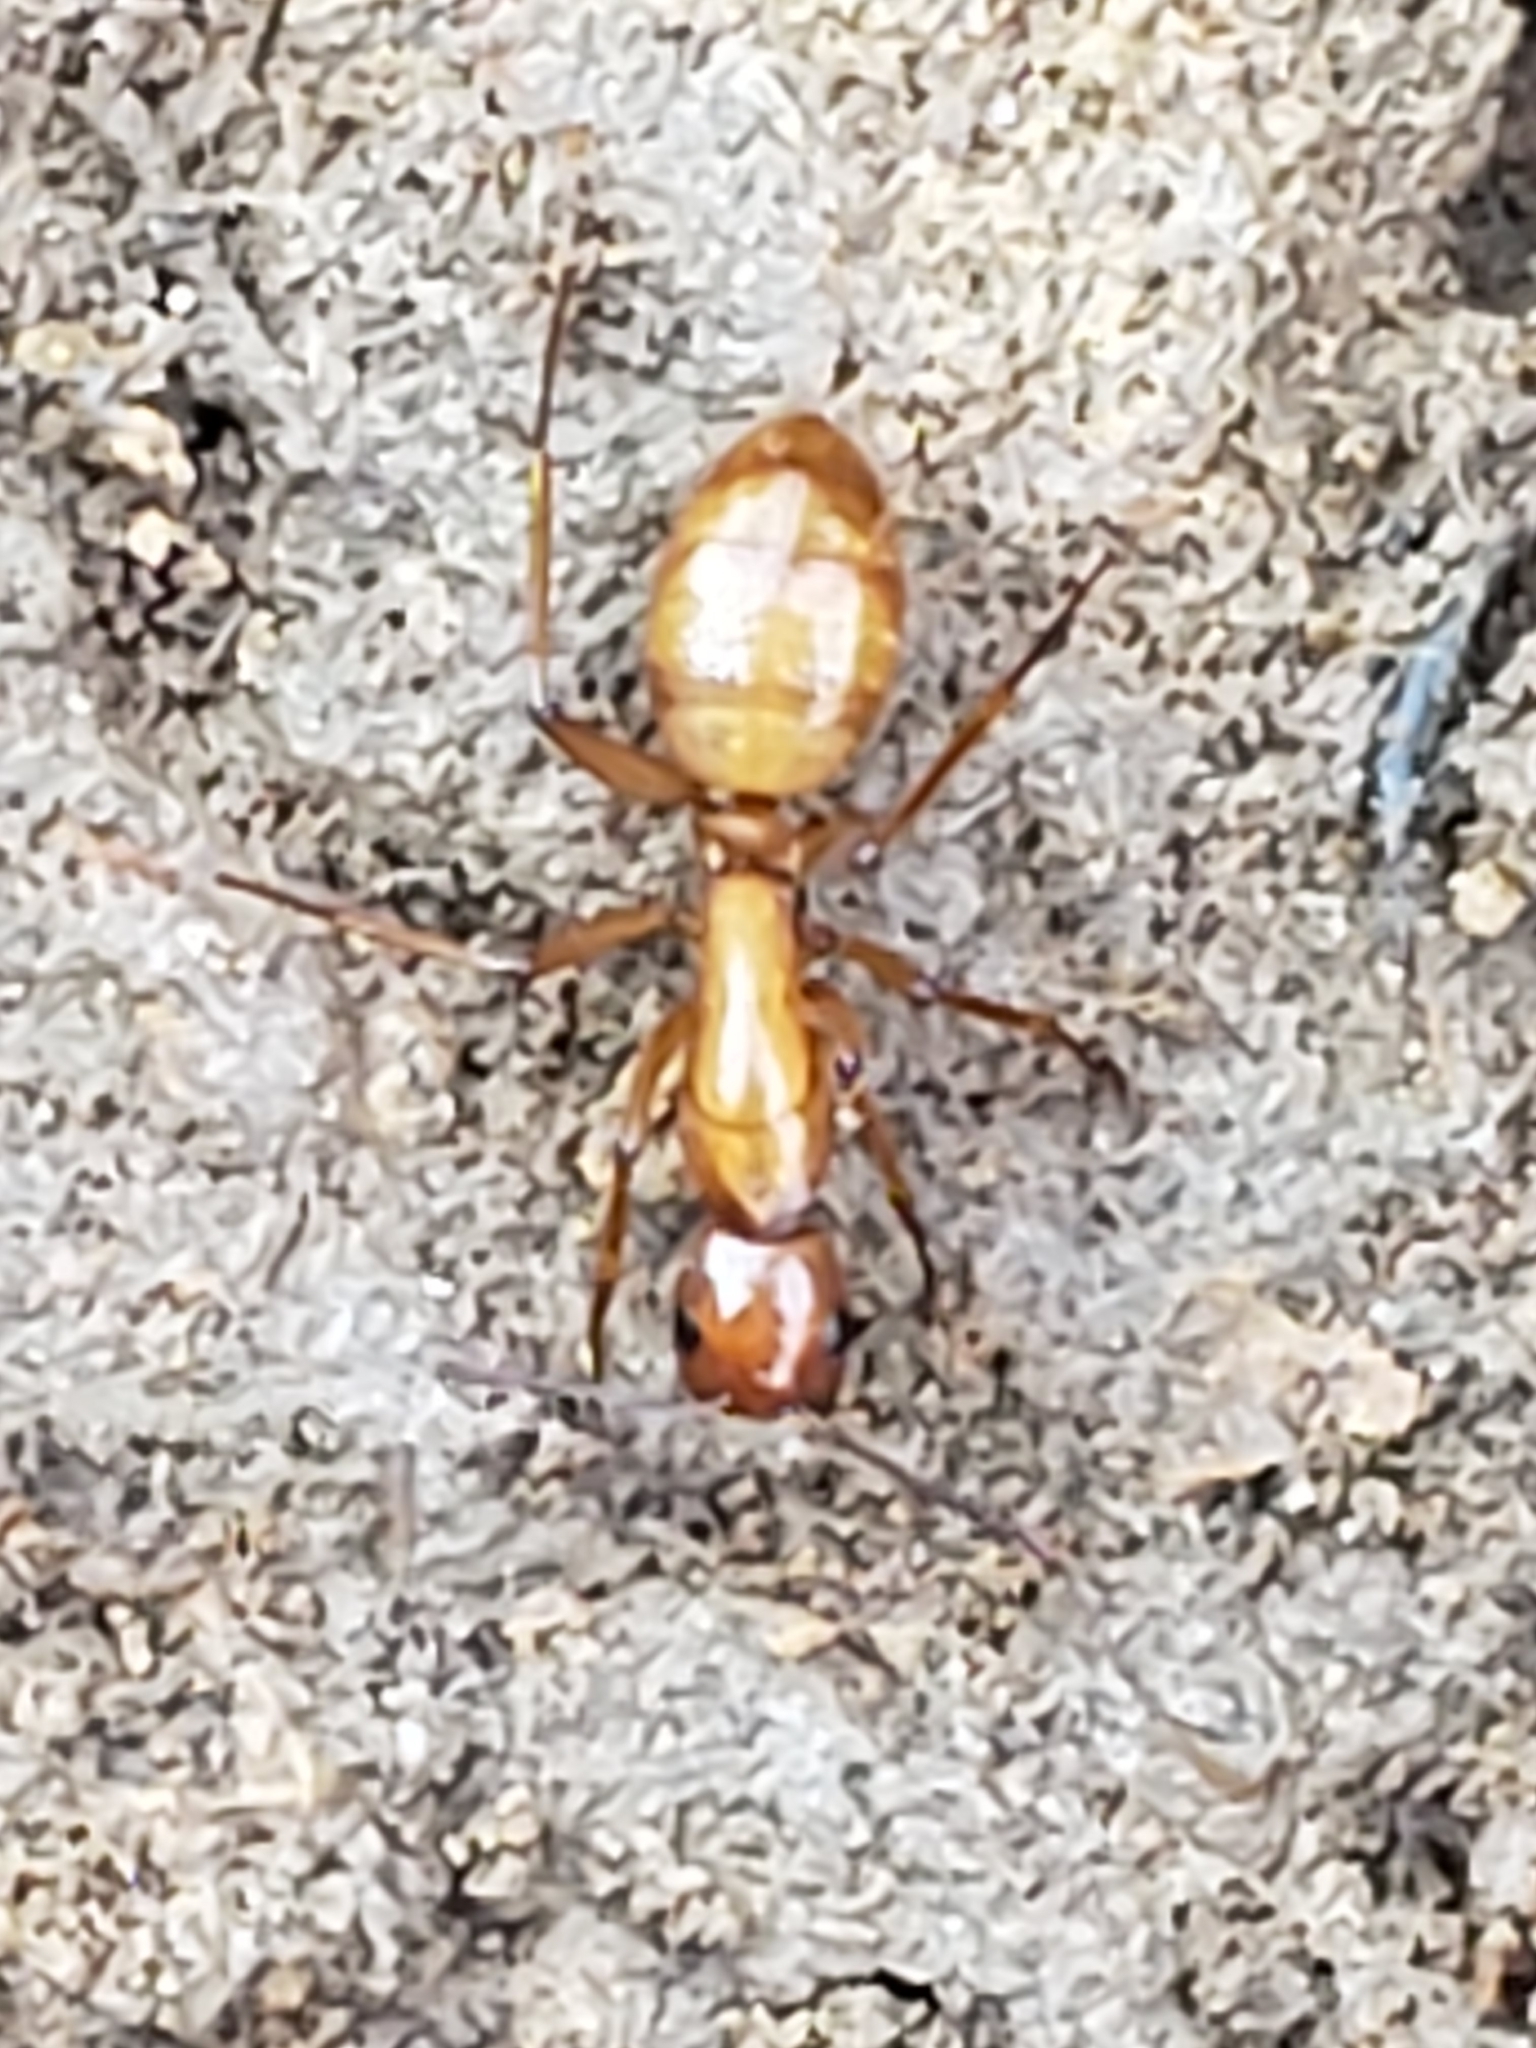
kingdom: Animalia
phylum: Arthropoda
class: Insecta
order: Hymenoptera
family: Formicidae
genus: Camponotus
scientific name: Camponotus castaneus
